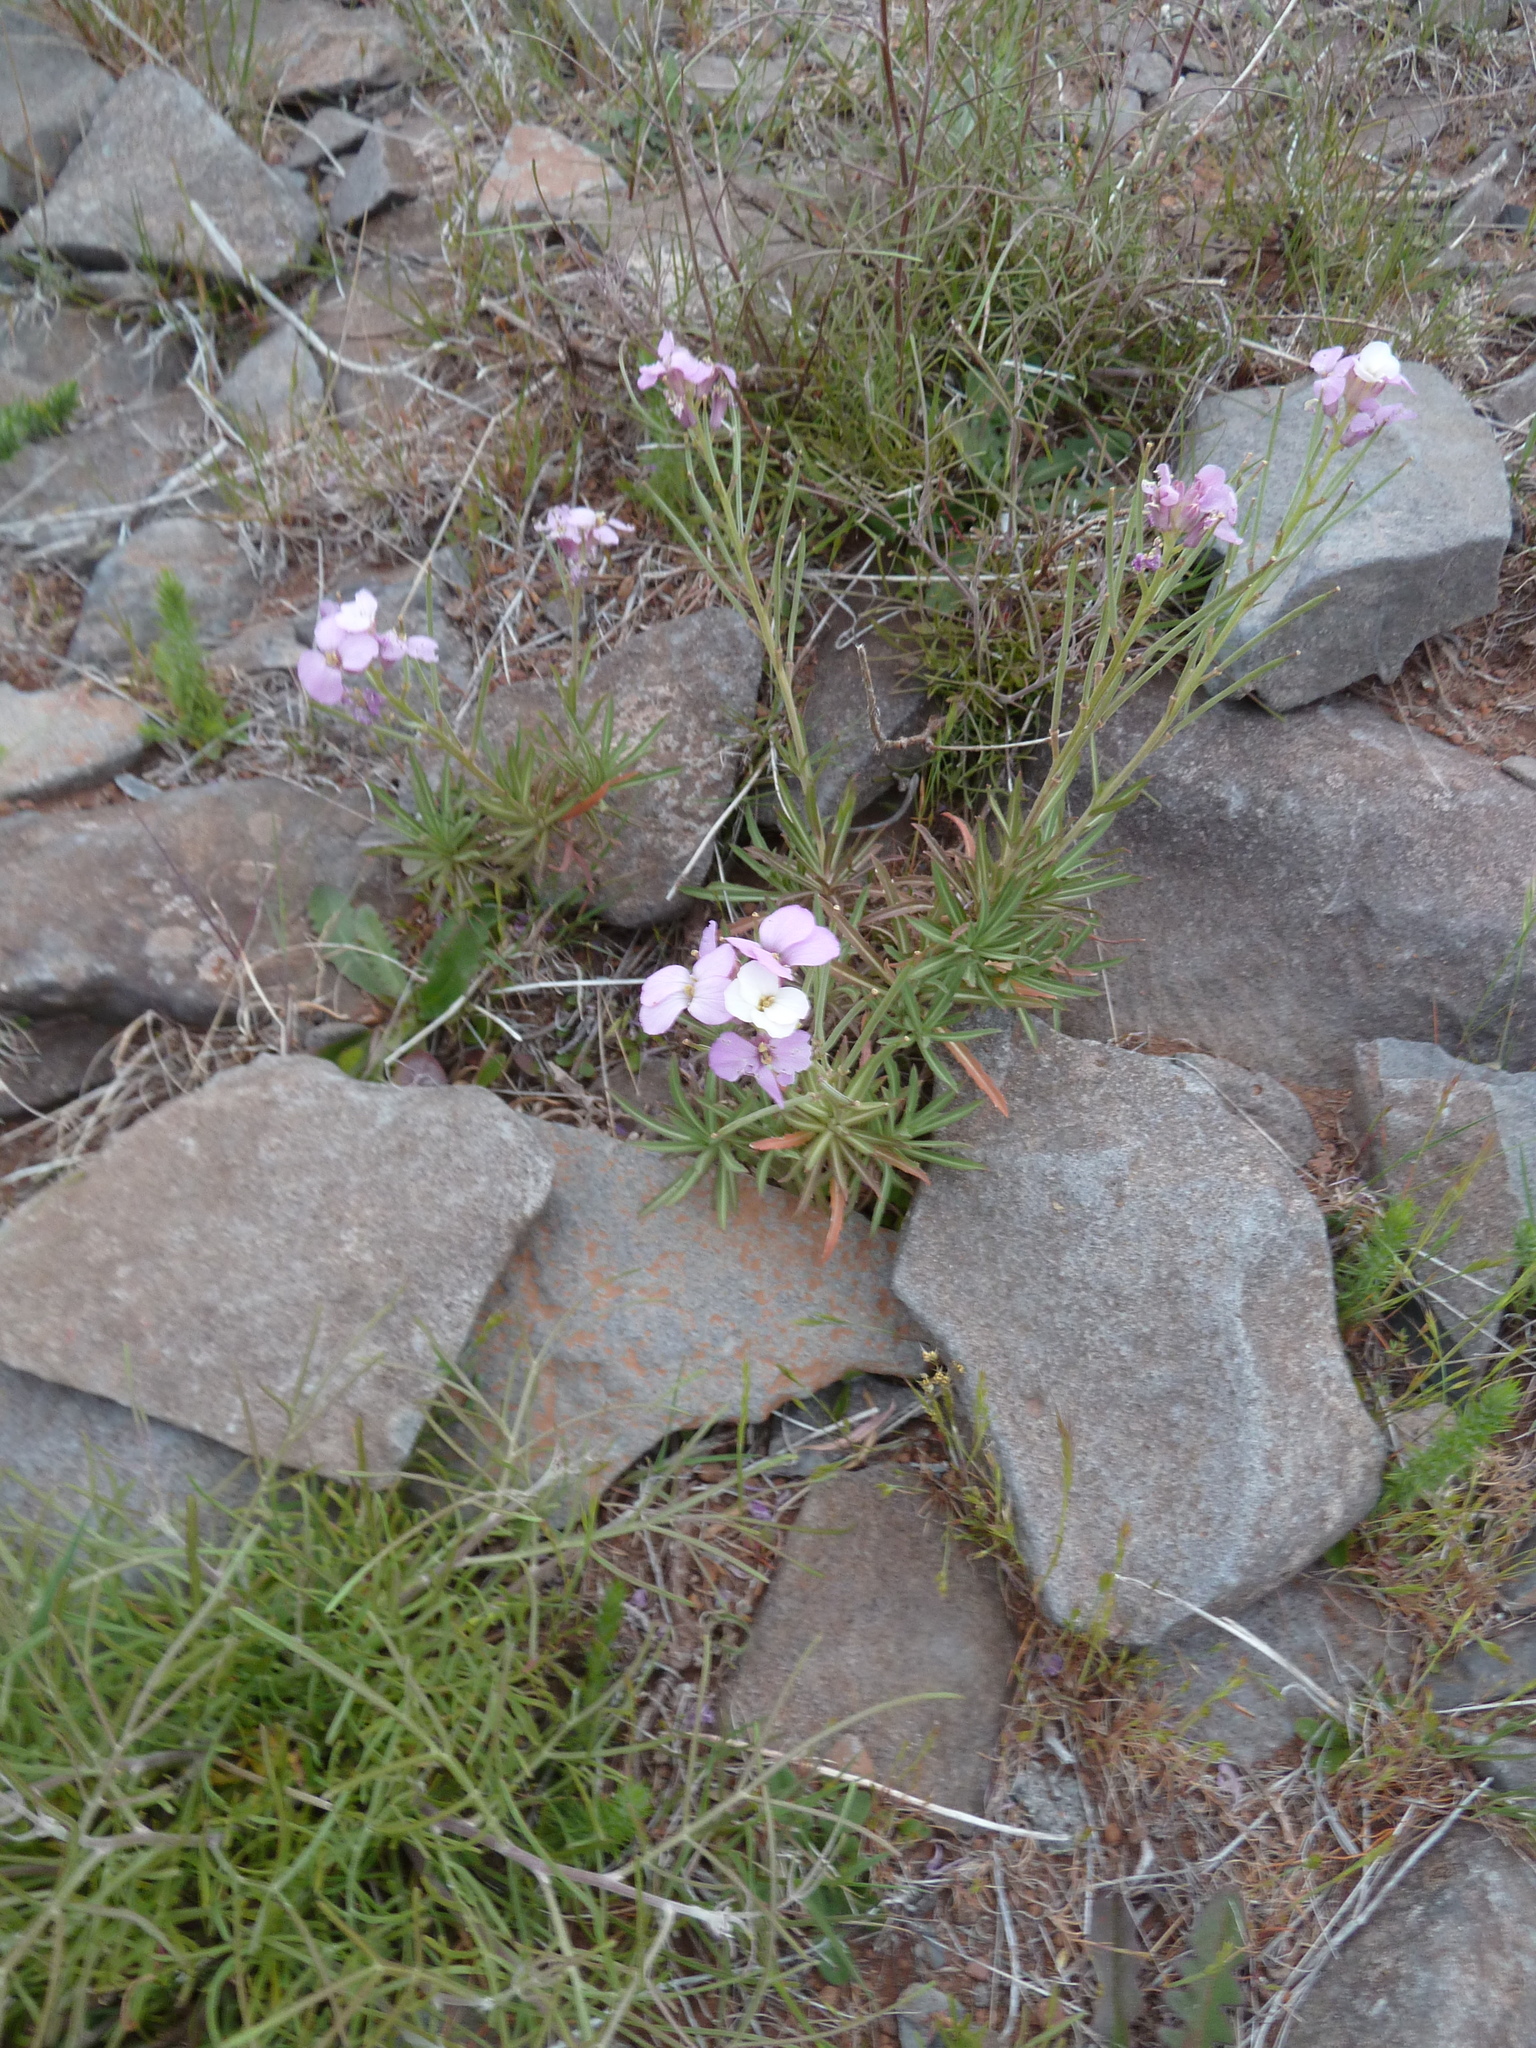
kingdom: Plantae
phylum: Tracheophyta
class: Magnoliopsida
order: Brassicales
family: Brassicaceae
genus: Erysimum
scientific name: Erysimum bicolor
